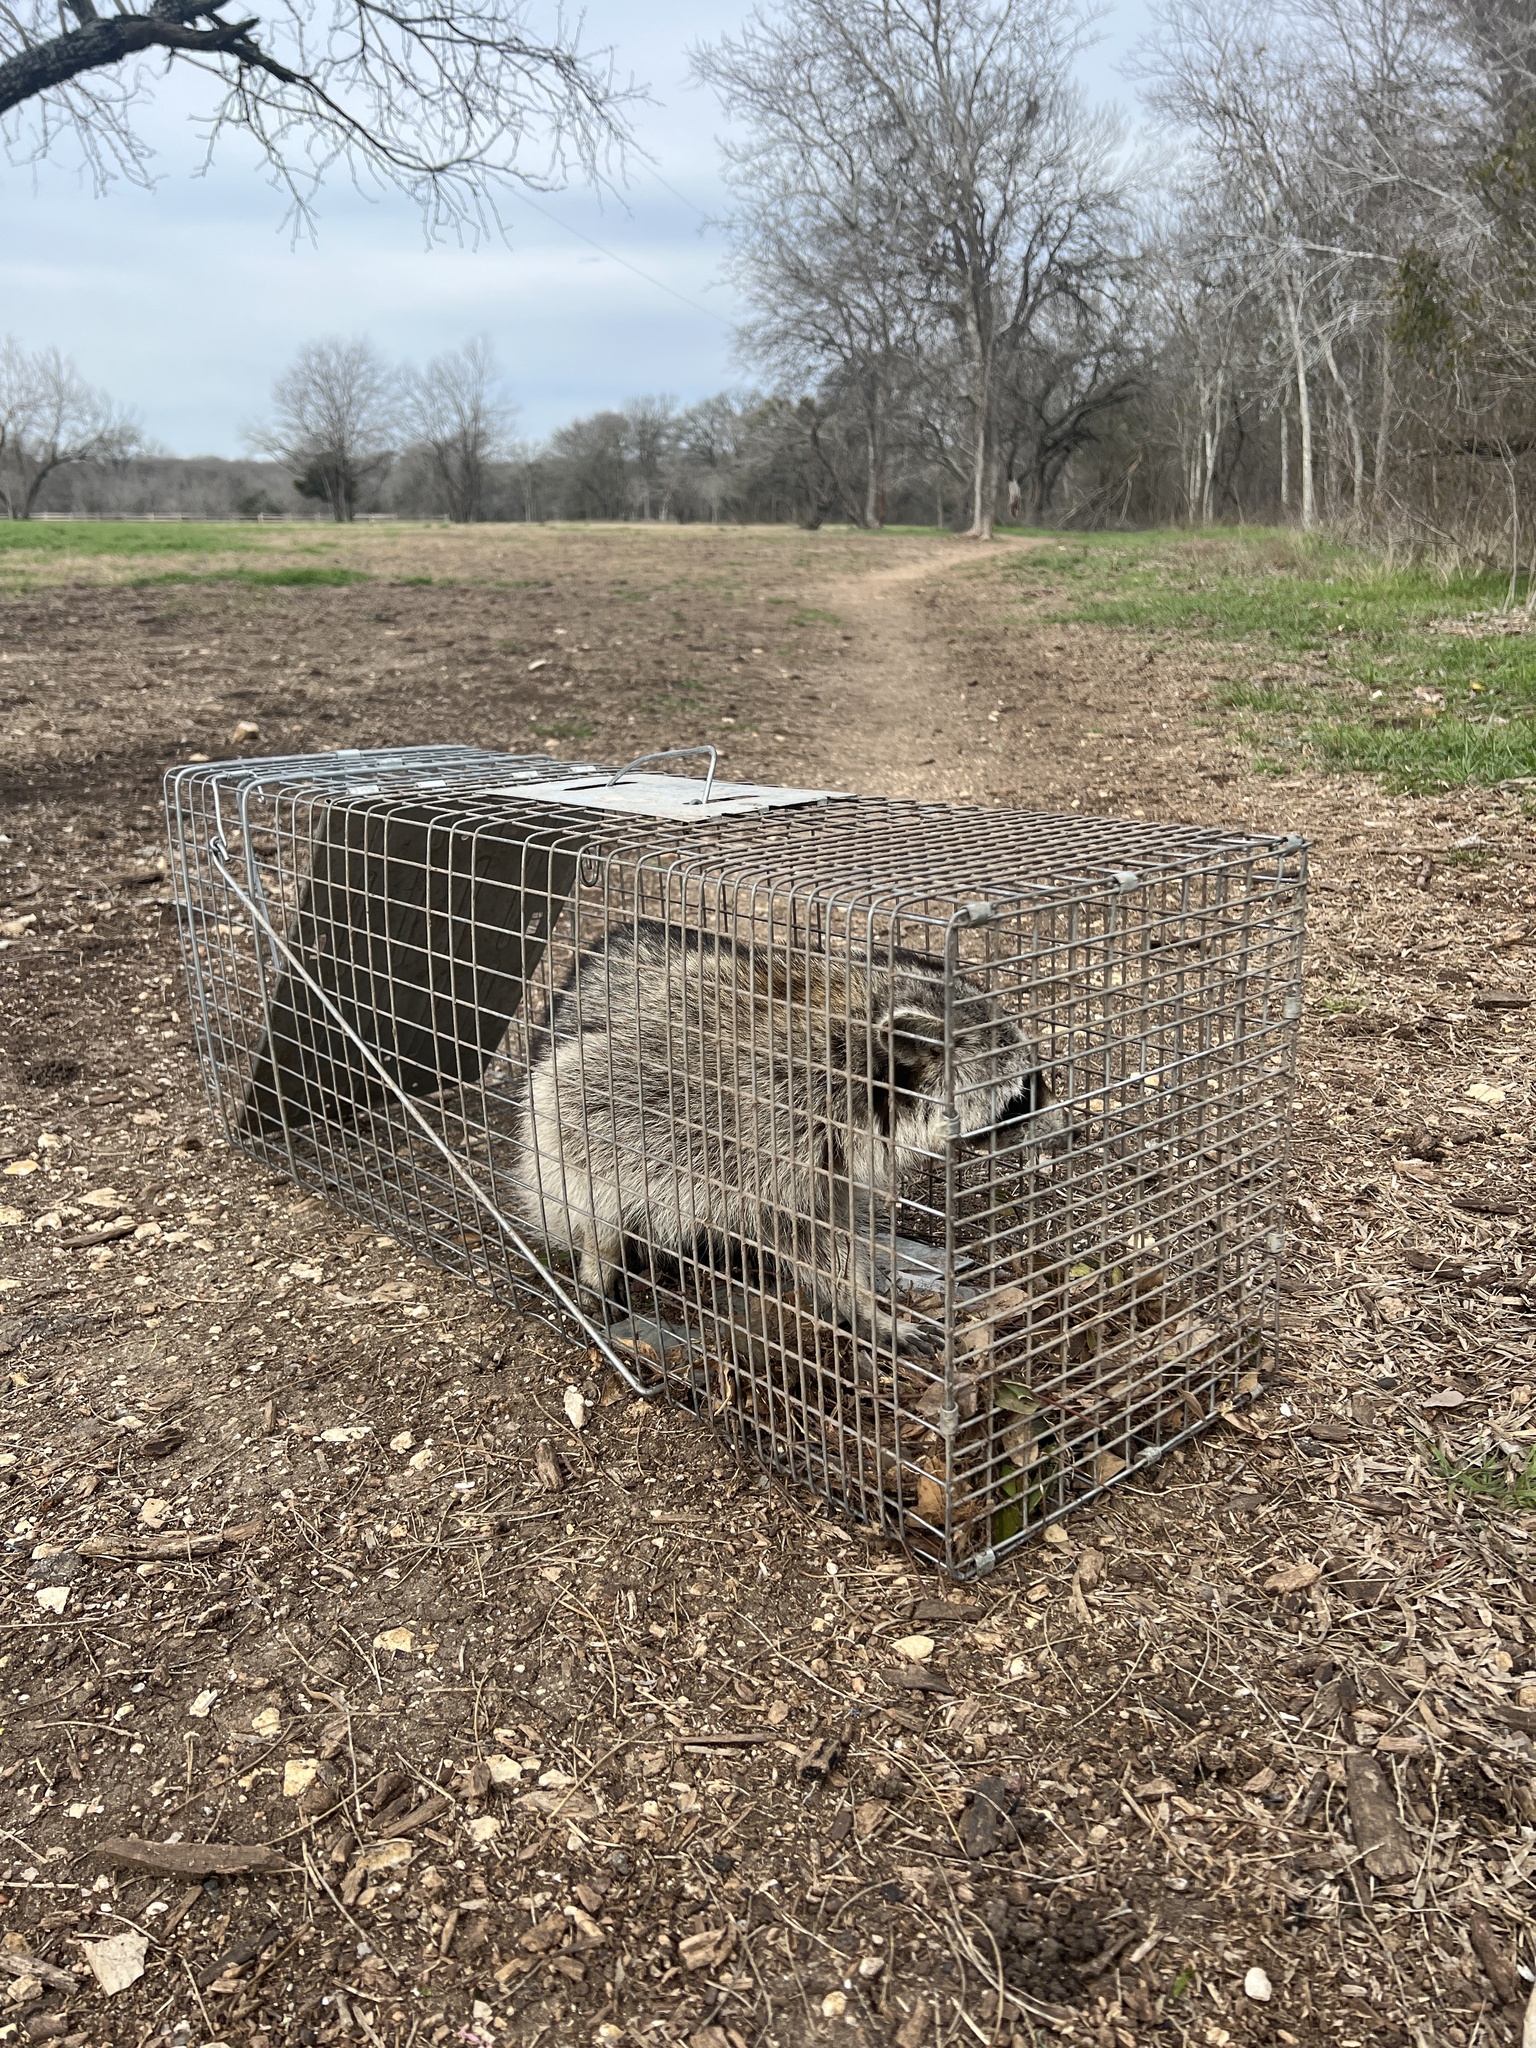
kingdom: Animalia
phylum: Chordata
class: Mammalia
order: Carnivora
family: Procyonidae
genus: Procyon
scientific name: Procyon lotor
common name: Raccoon
